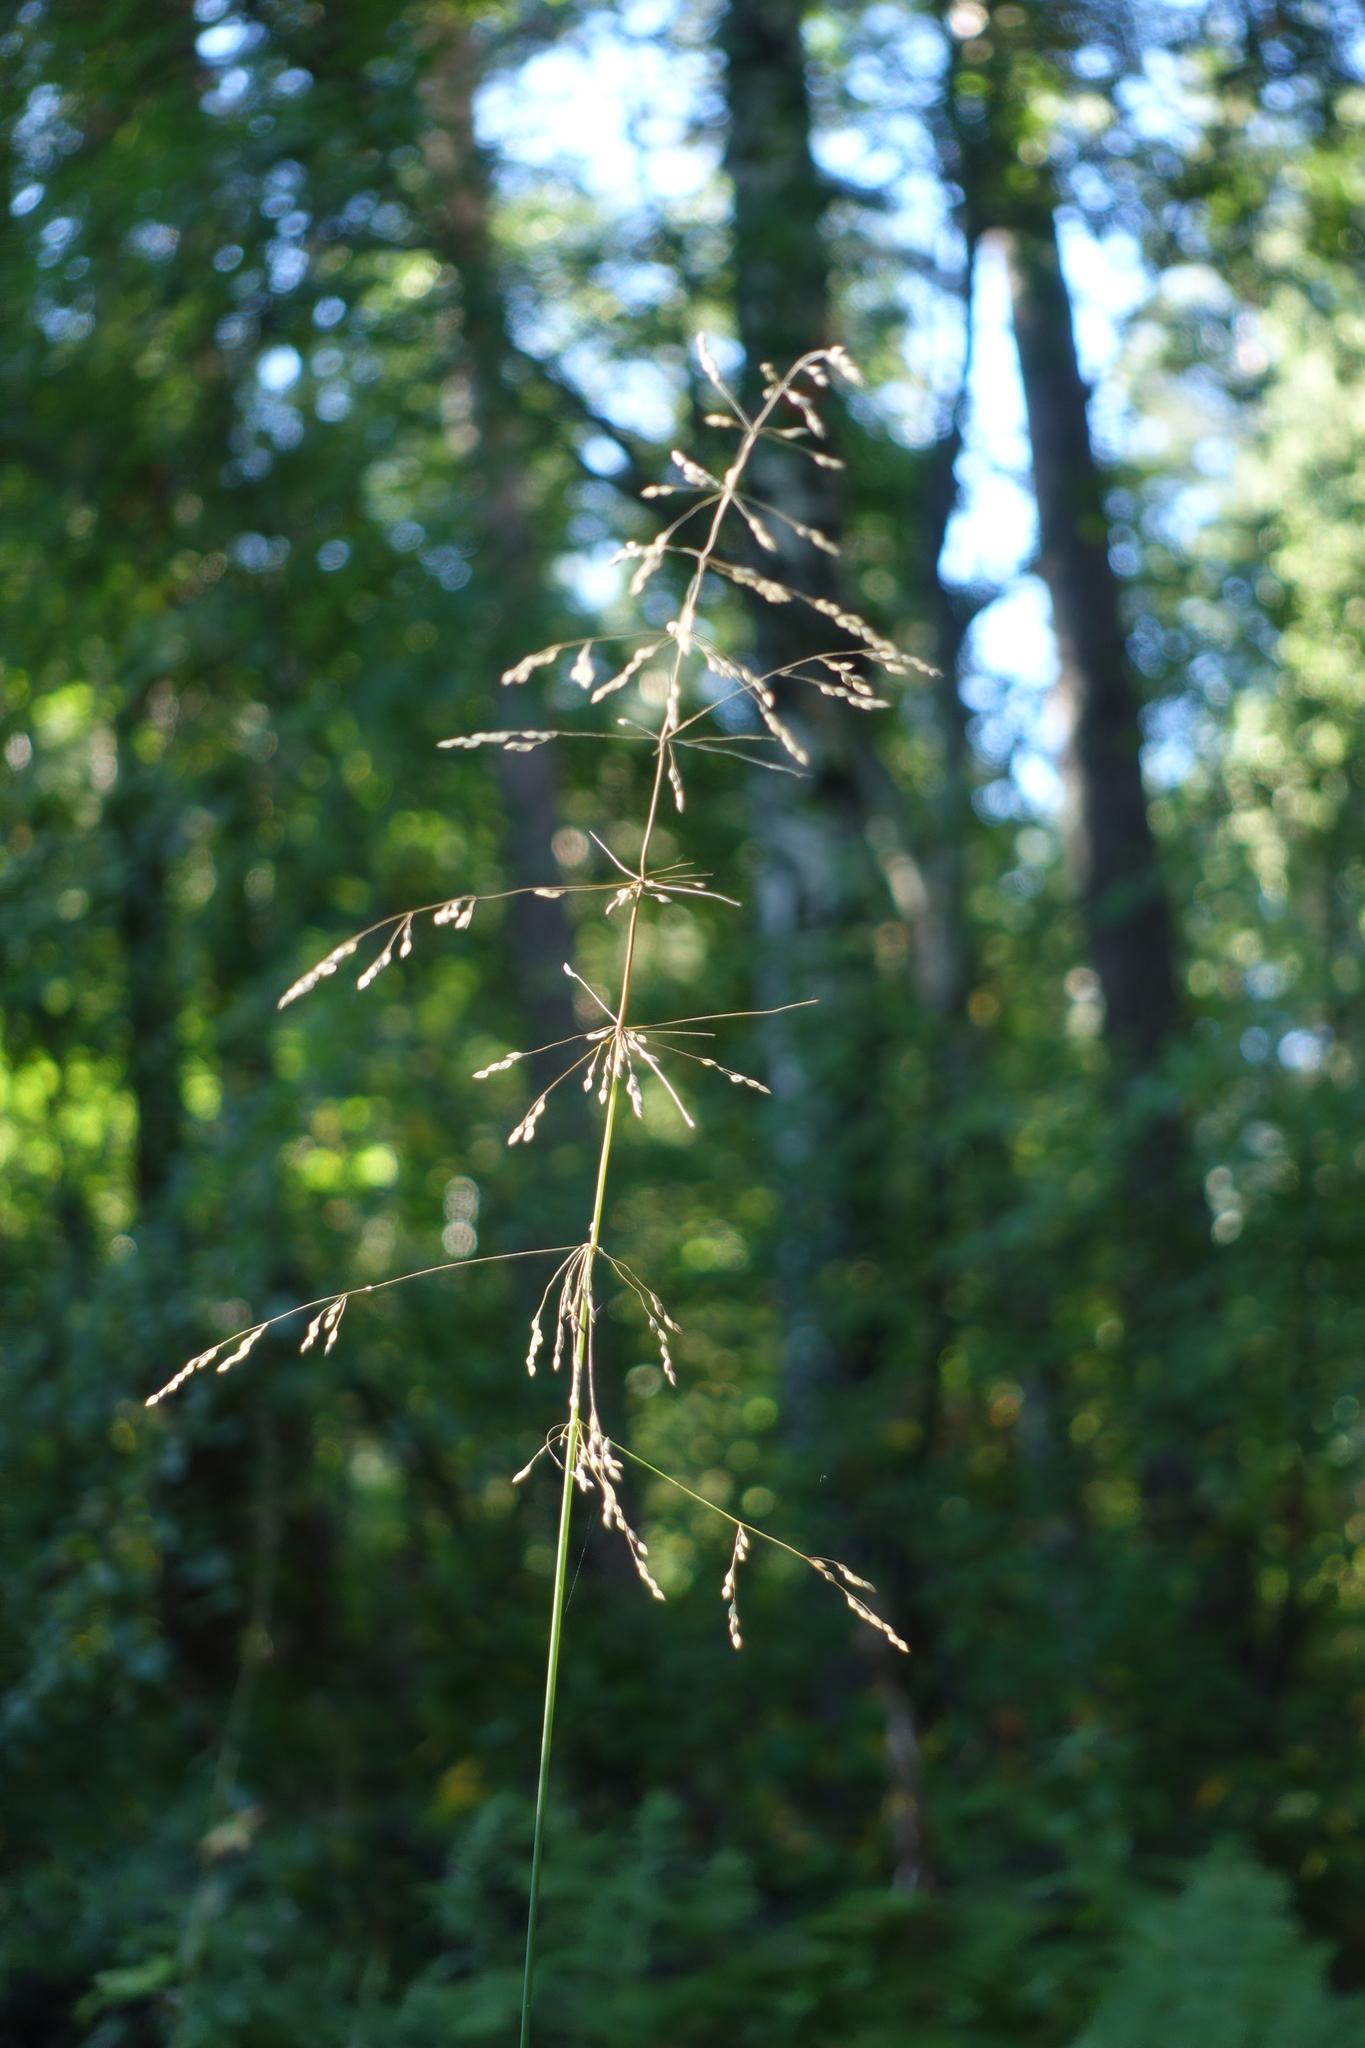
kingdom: Plantae
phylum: Tracheophyta
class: Liliopsida
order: Poales
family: Poaceae
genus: Milium
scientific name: Milium effusum
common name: Wood millet
